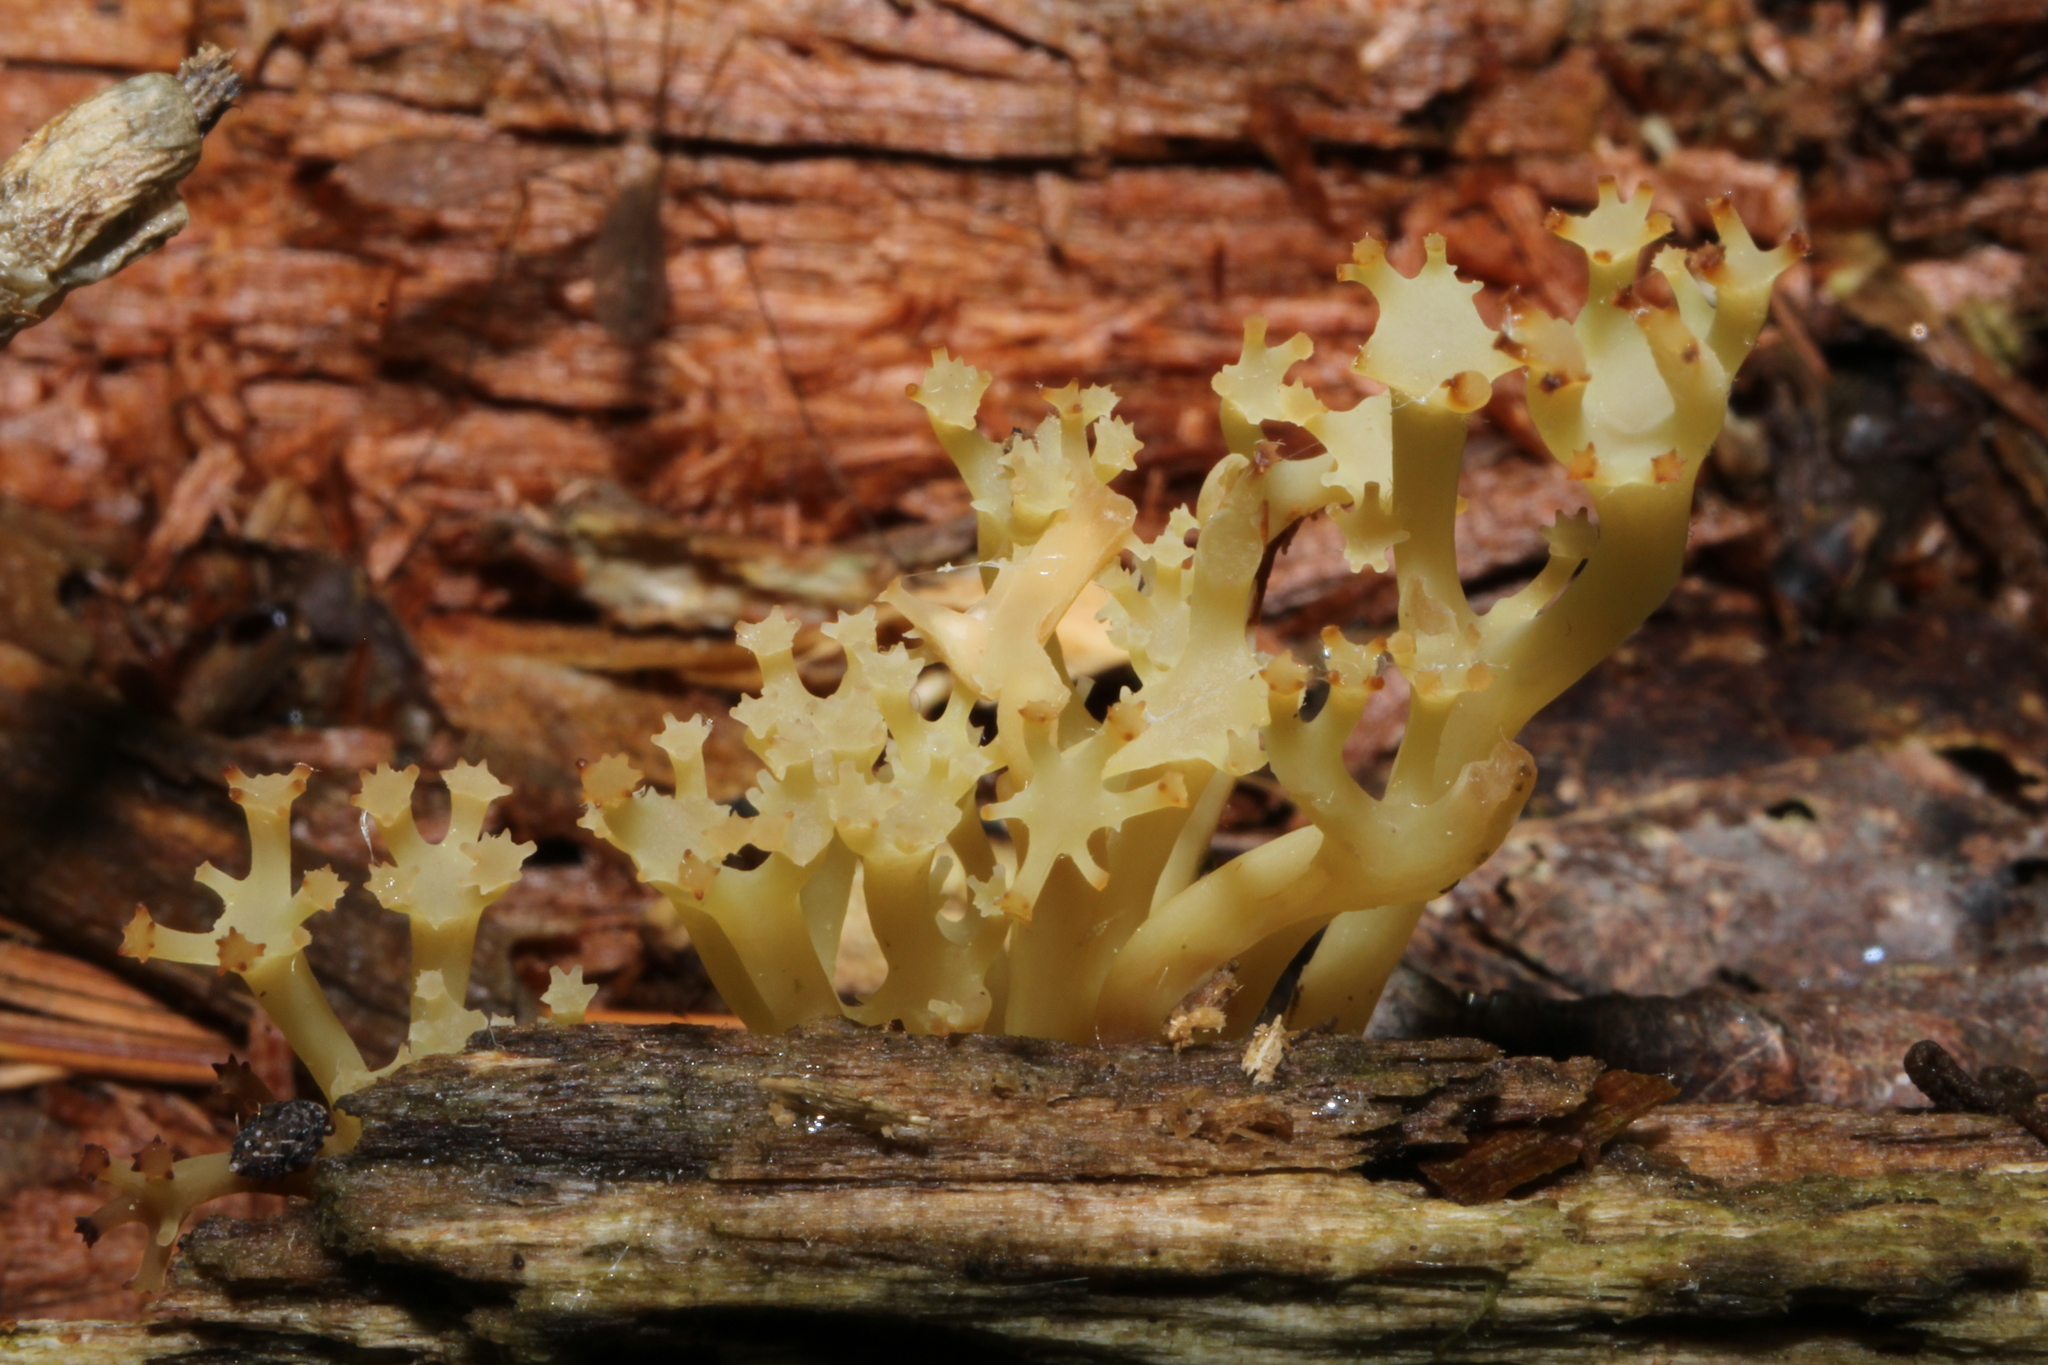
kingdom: Fungi
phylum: Basidiomycota
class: Agaricomycetes
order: Russulales
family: Auriscalpiaceae
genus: Artomyces
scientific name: Artomyces pyxidatus
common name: Crown-tipped coral fungus
